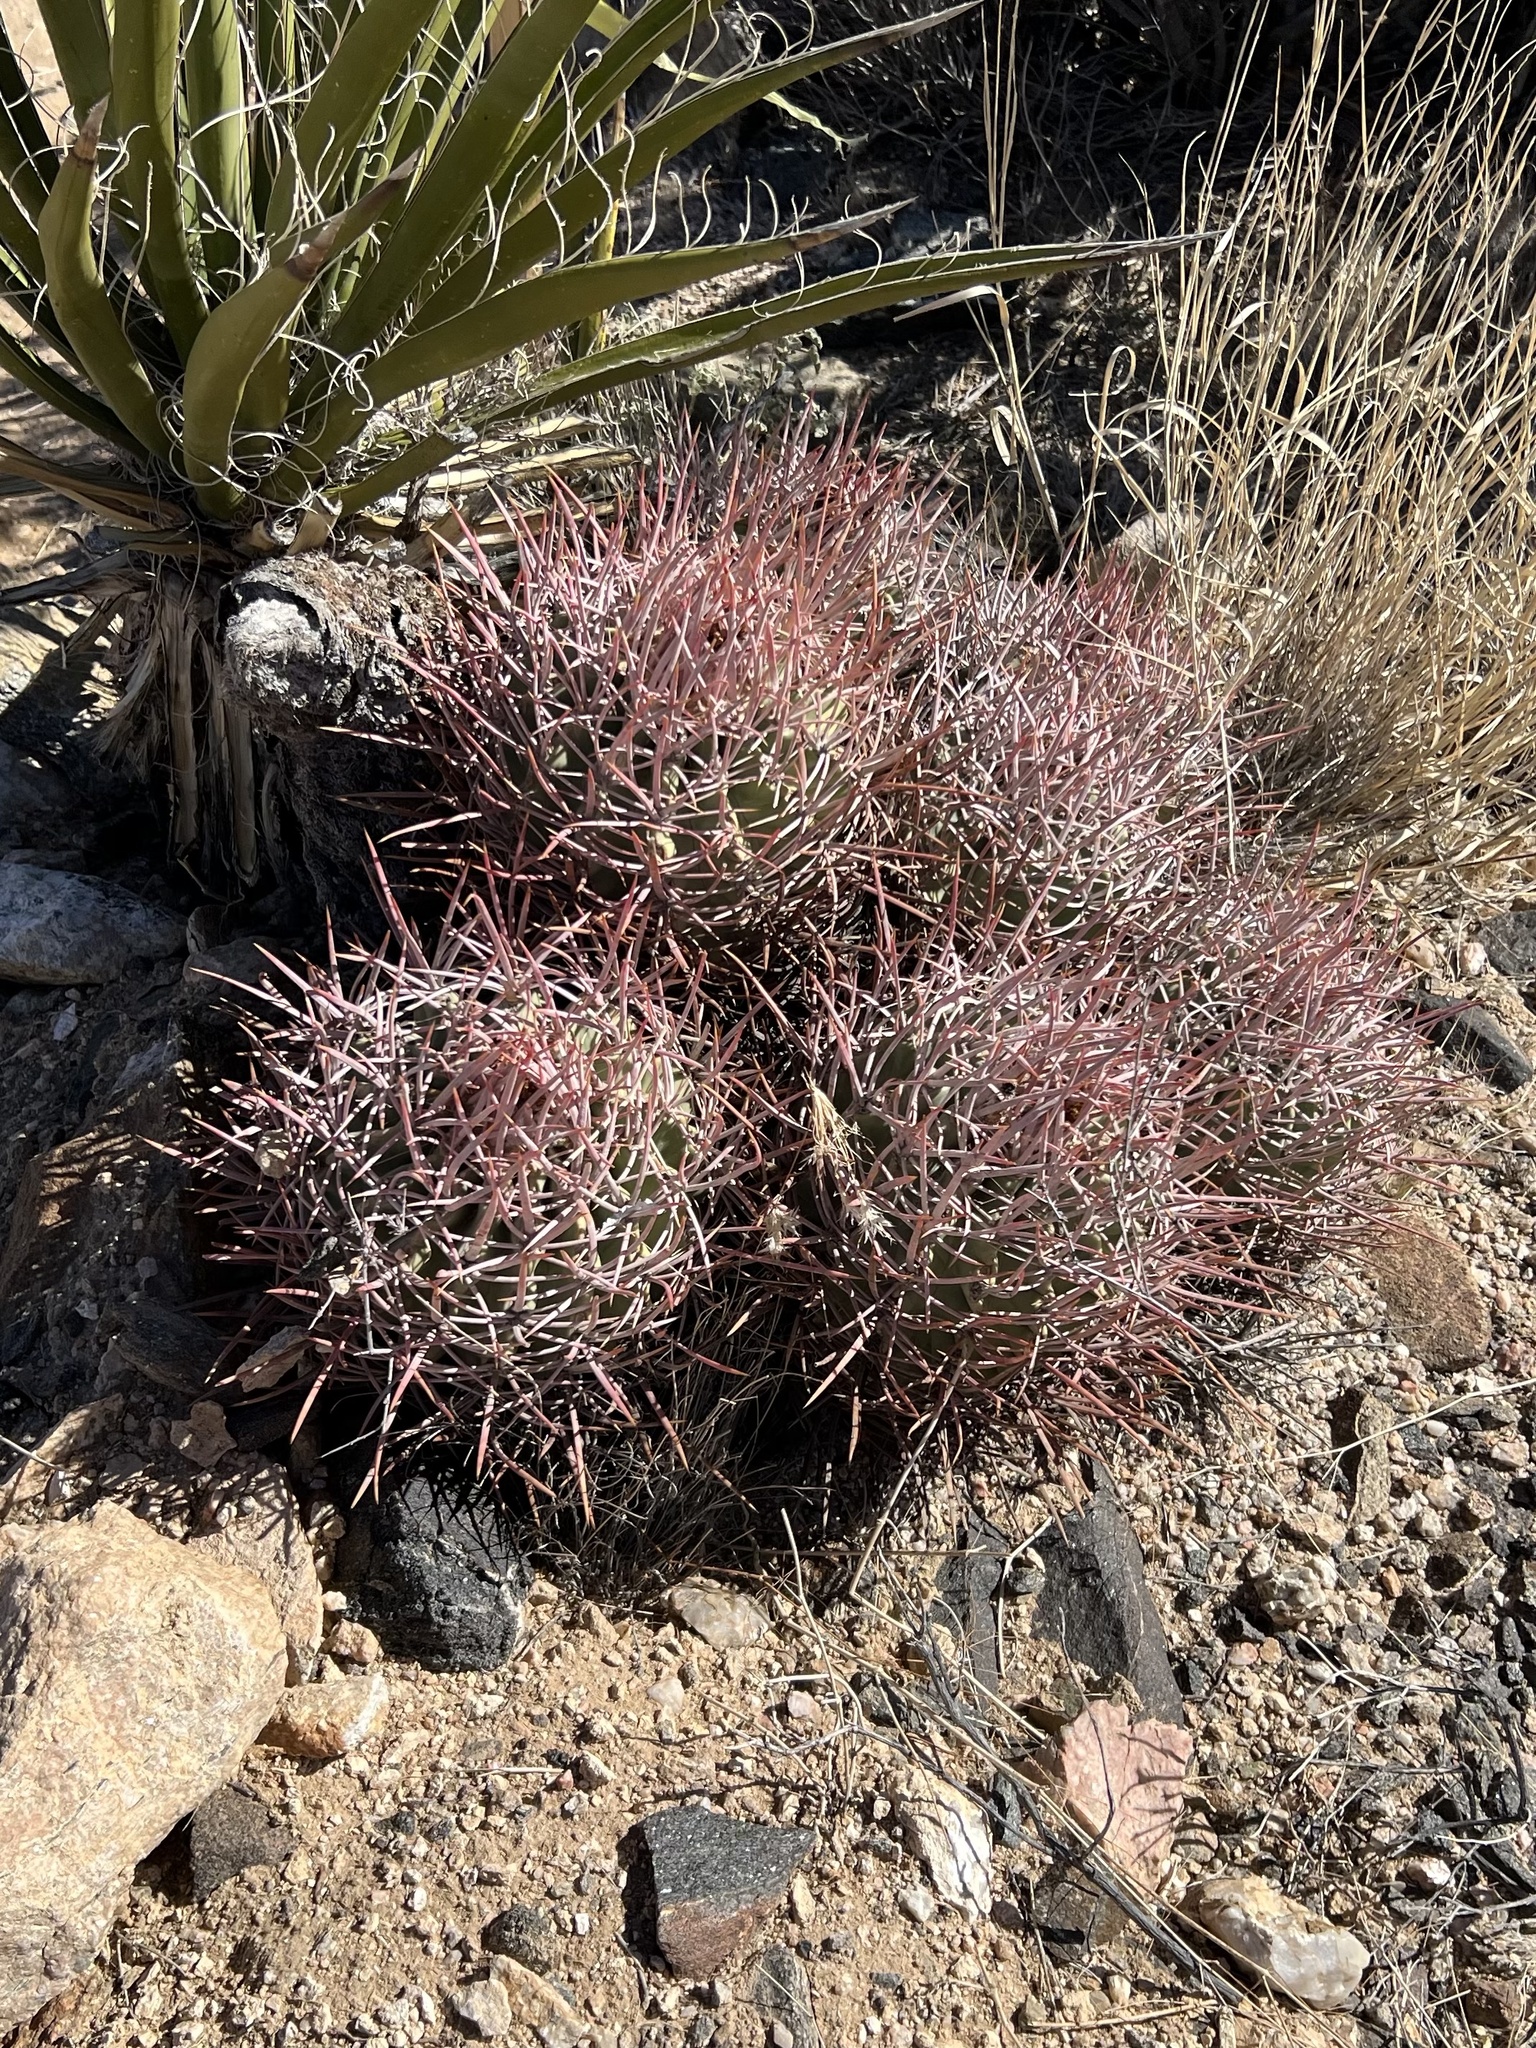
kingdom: Plantae
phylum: Tracheophyta
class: Magnoliopsida
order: Caryophyllales
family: Cactaceae
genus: Echinocactus
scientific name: Echinocactus polycephalus
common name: Cottontop cactus
